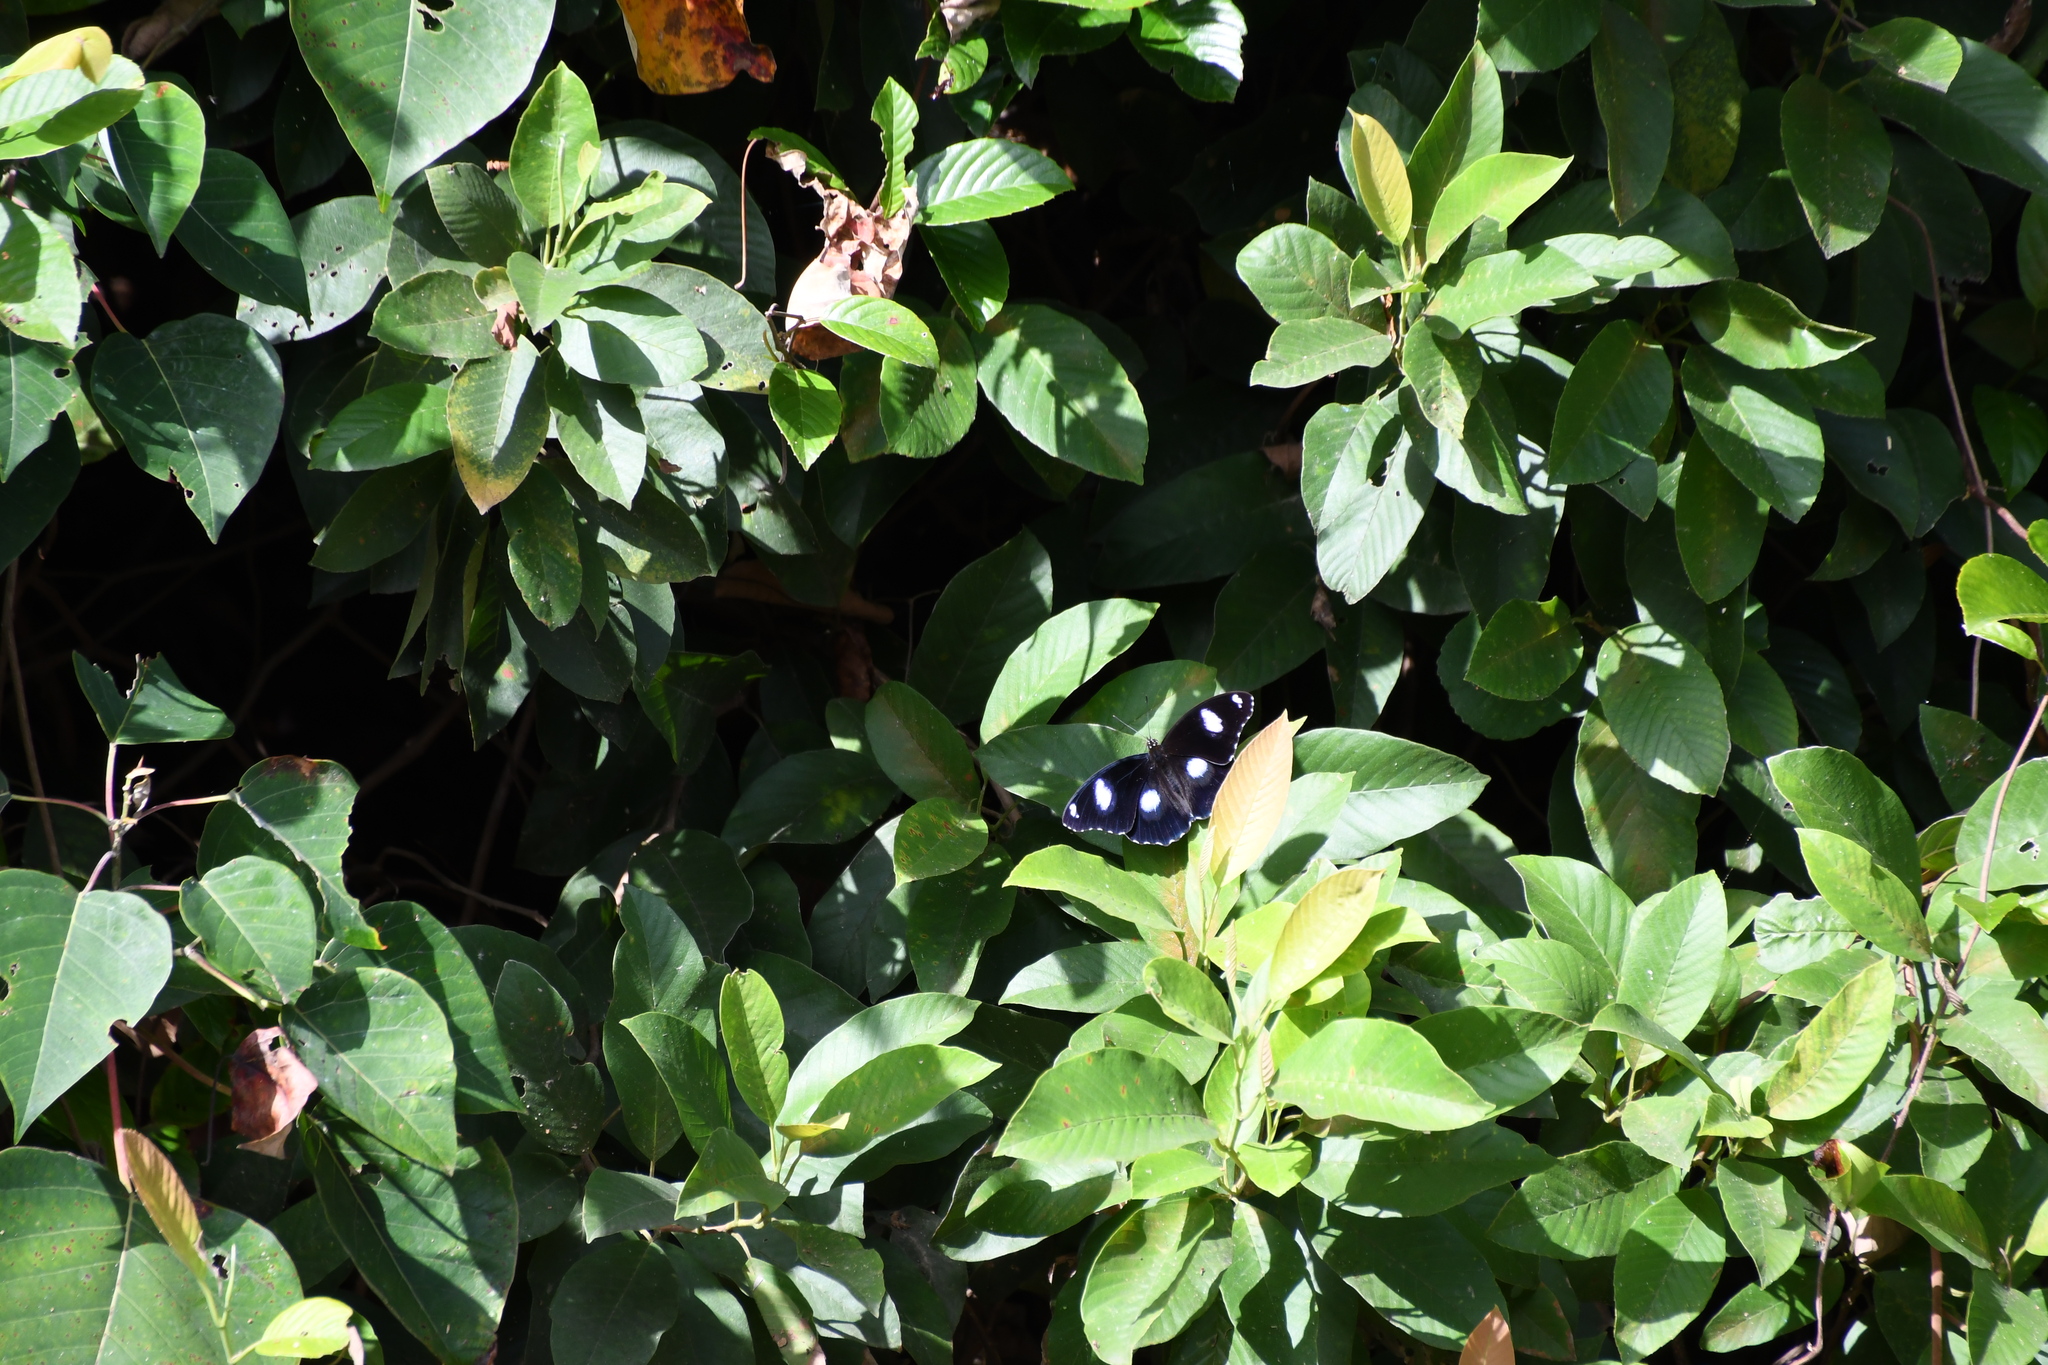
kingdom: Animalia
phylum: Arthropoda
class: Insecta
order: Lepidoptera
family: Nymphalidae
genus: Hypolimnas
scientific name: Hypolimnas bolina
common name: Great eggfly
